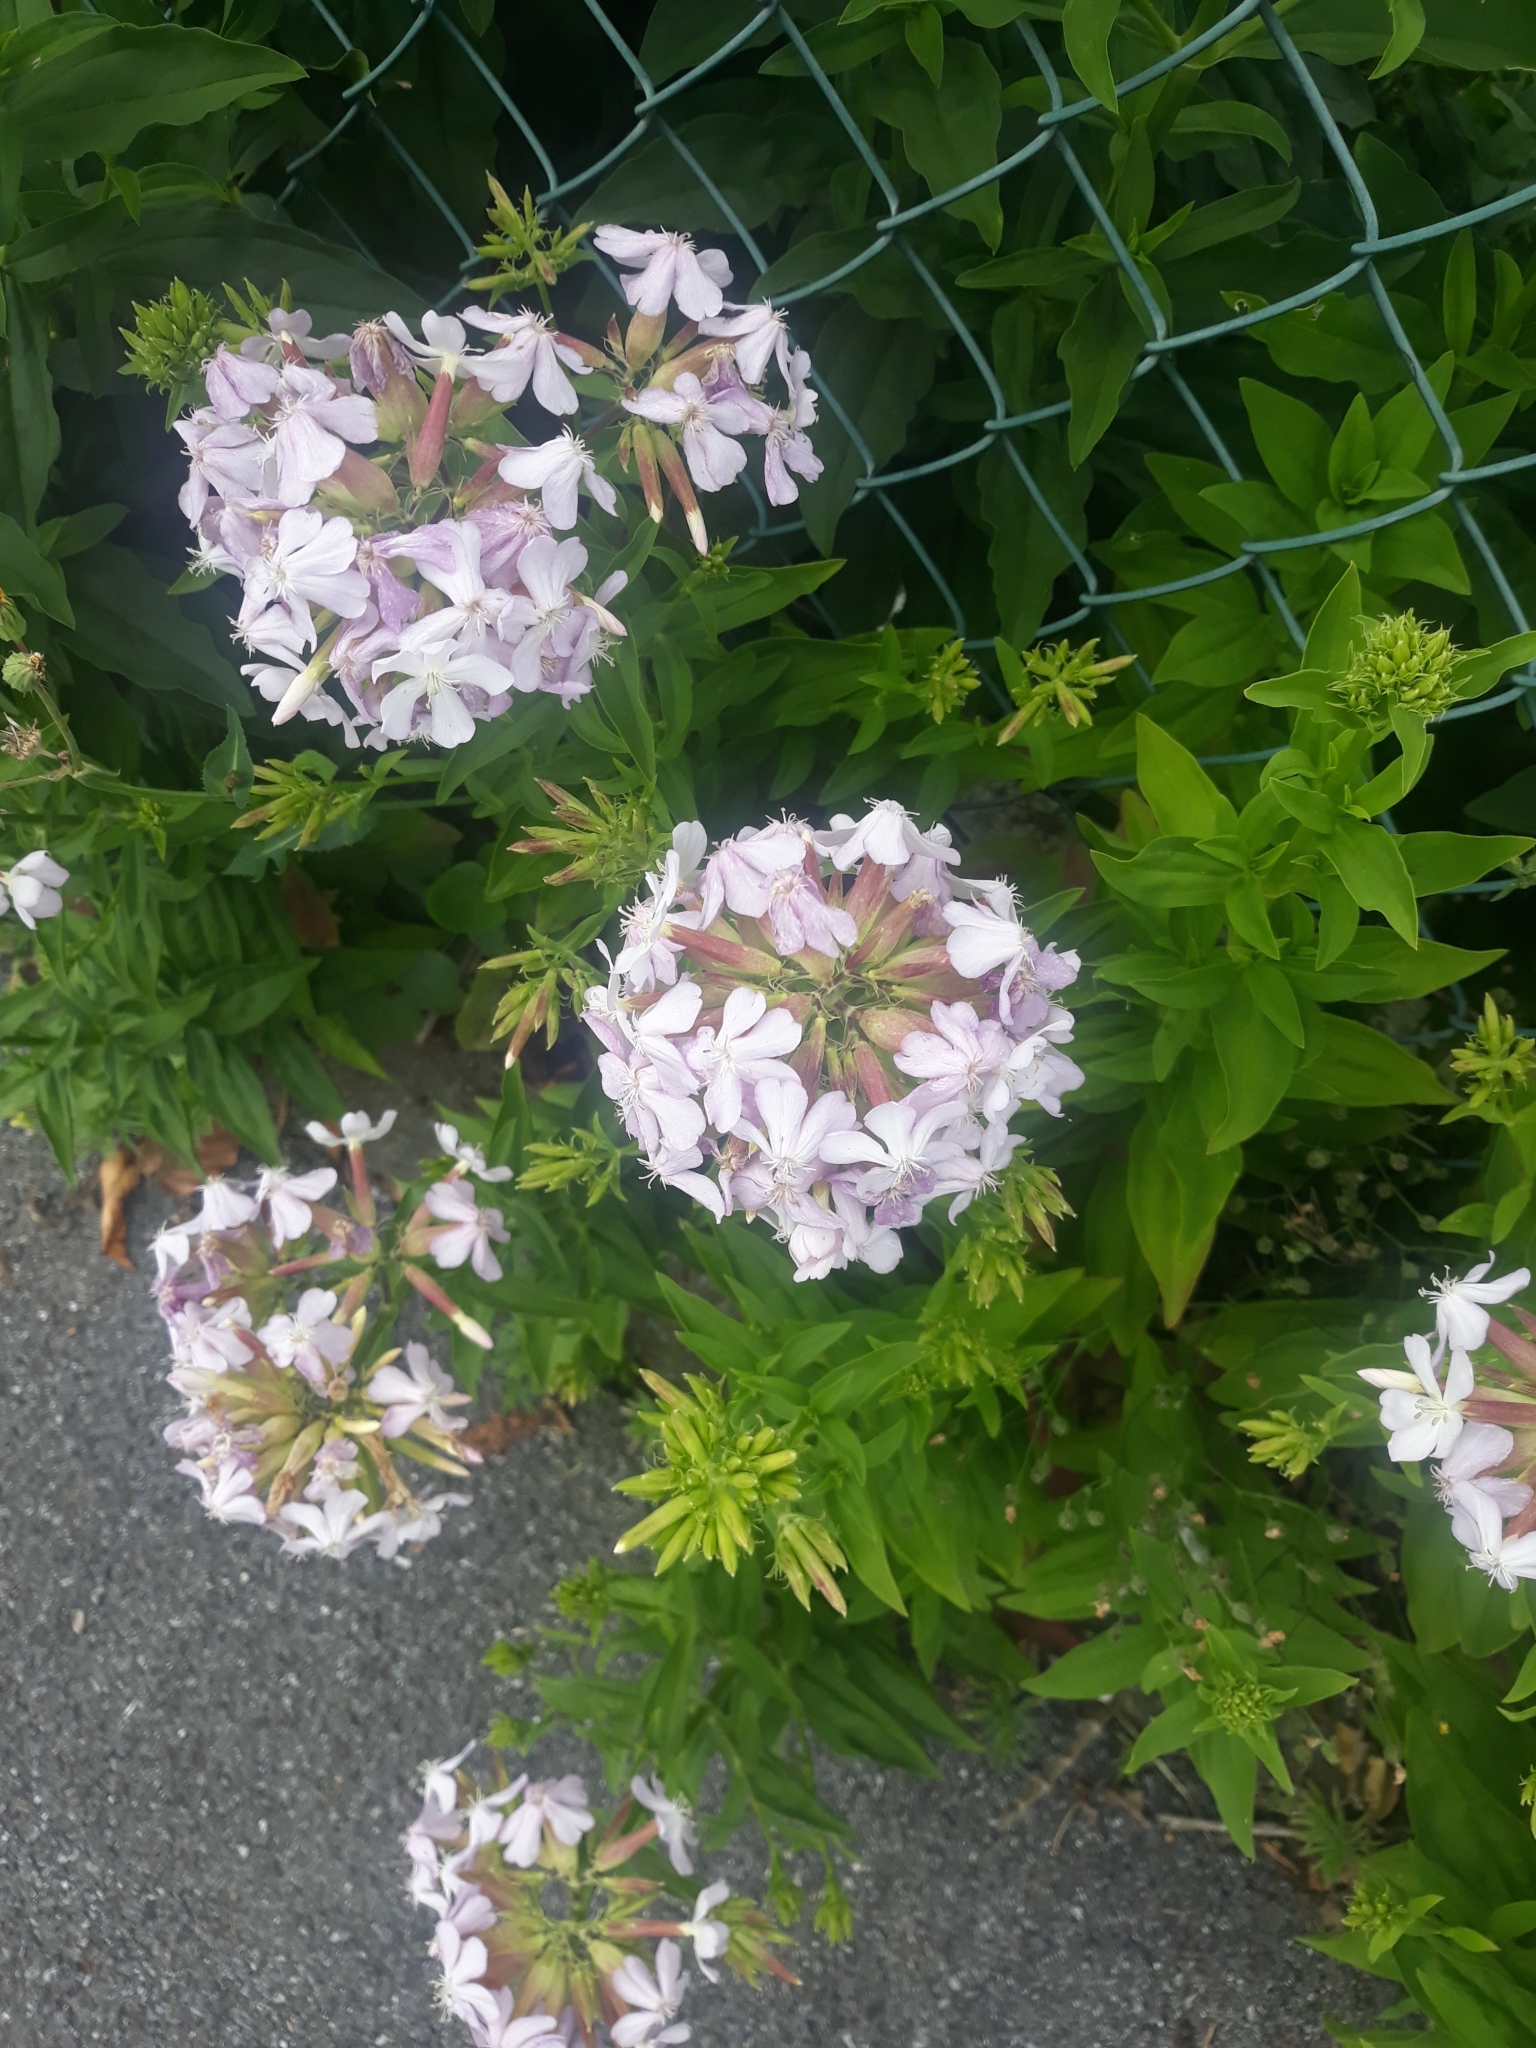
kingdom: Plantae
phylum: Tracheophyta
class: Magnoliopsida
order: Caryophyllales
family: Caryophyllaceae
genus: Saponaria
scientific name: Saponaria officinalis
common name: Soapwort
